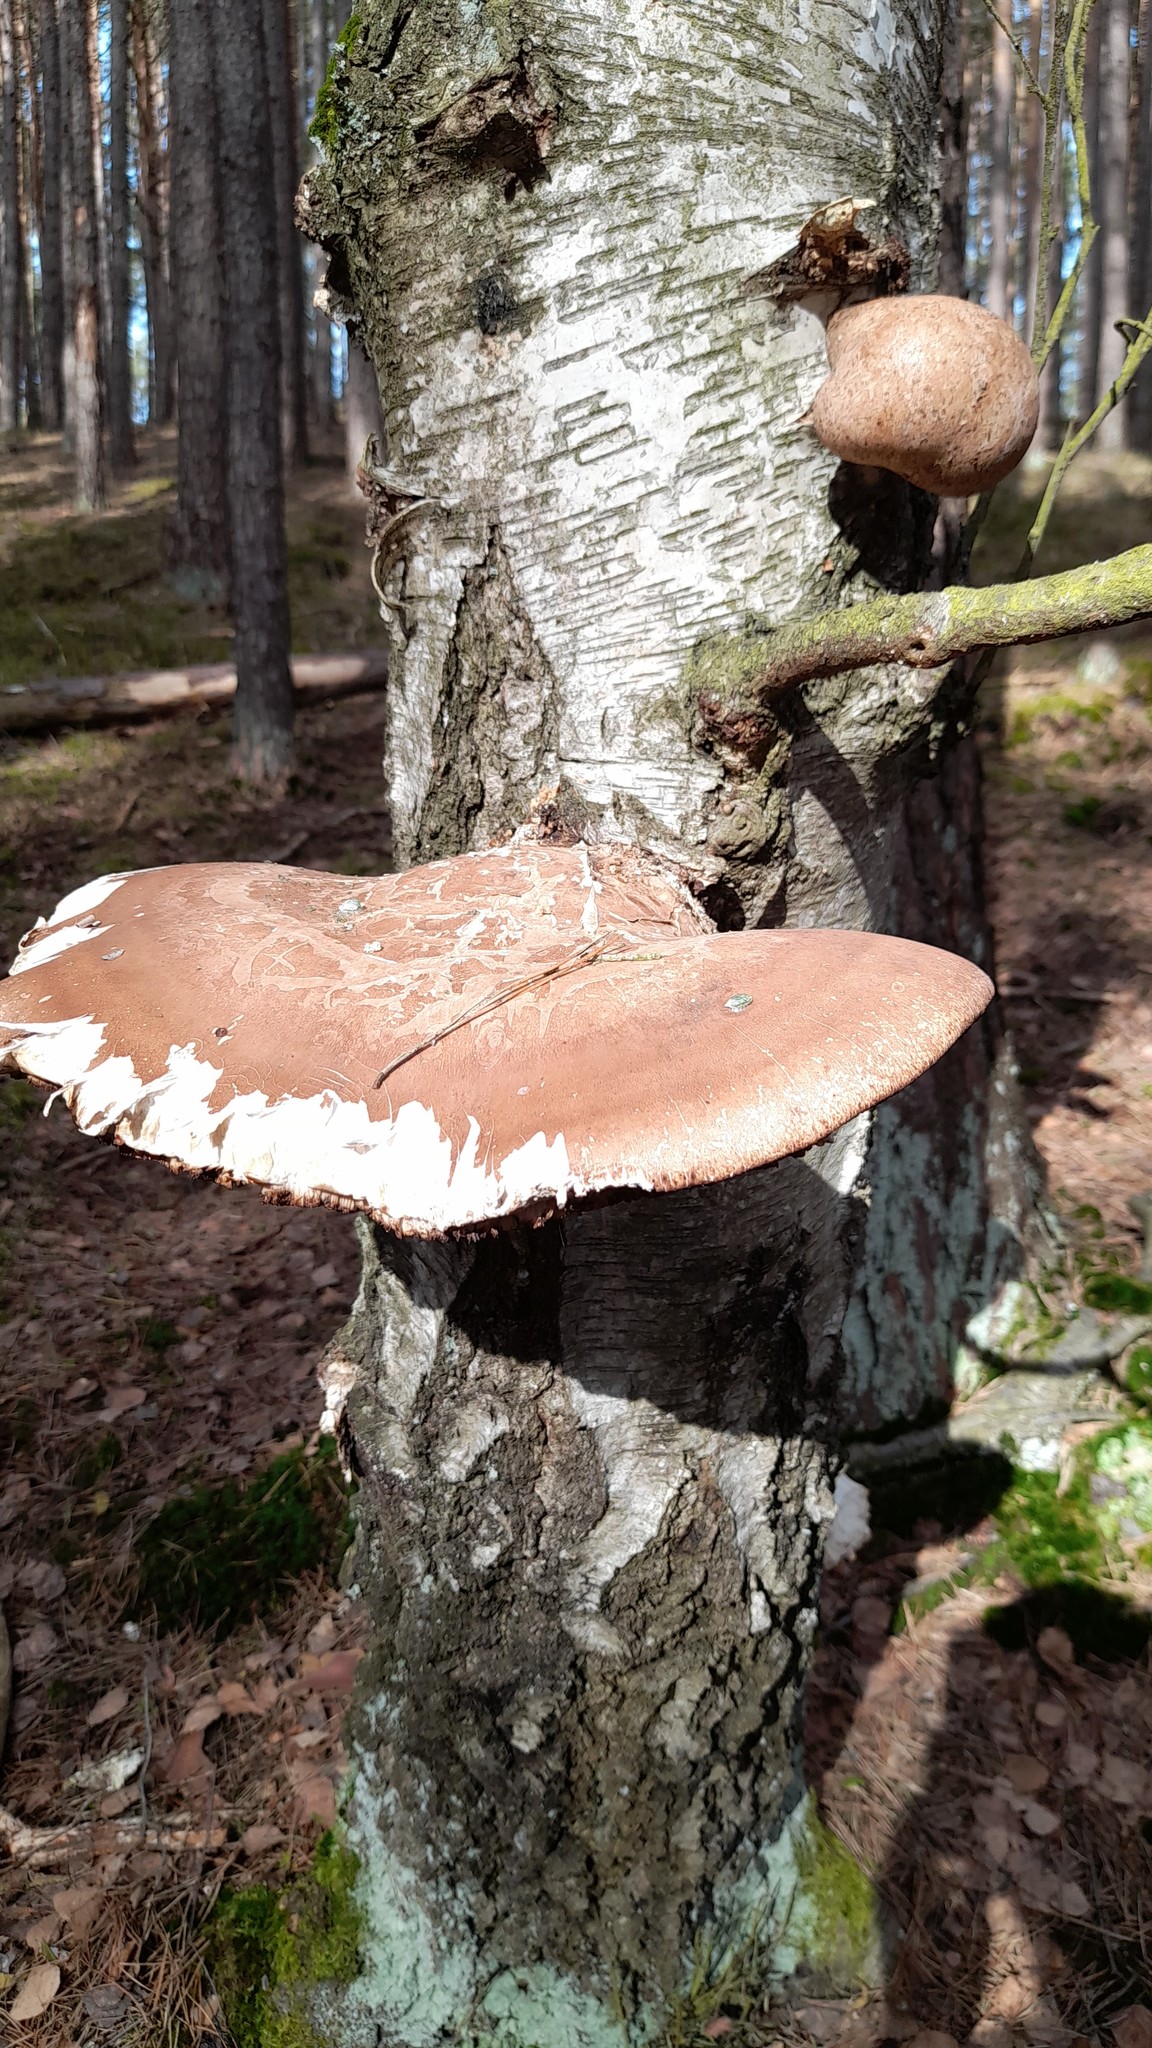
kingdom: Fungi
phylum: Basidiomycota
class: Agaricomycetes
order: Polyporales
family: Fomitopsidaceae
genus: Fomitopsis
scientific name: Fomitopsis betulina
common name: Birch polypore
